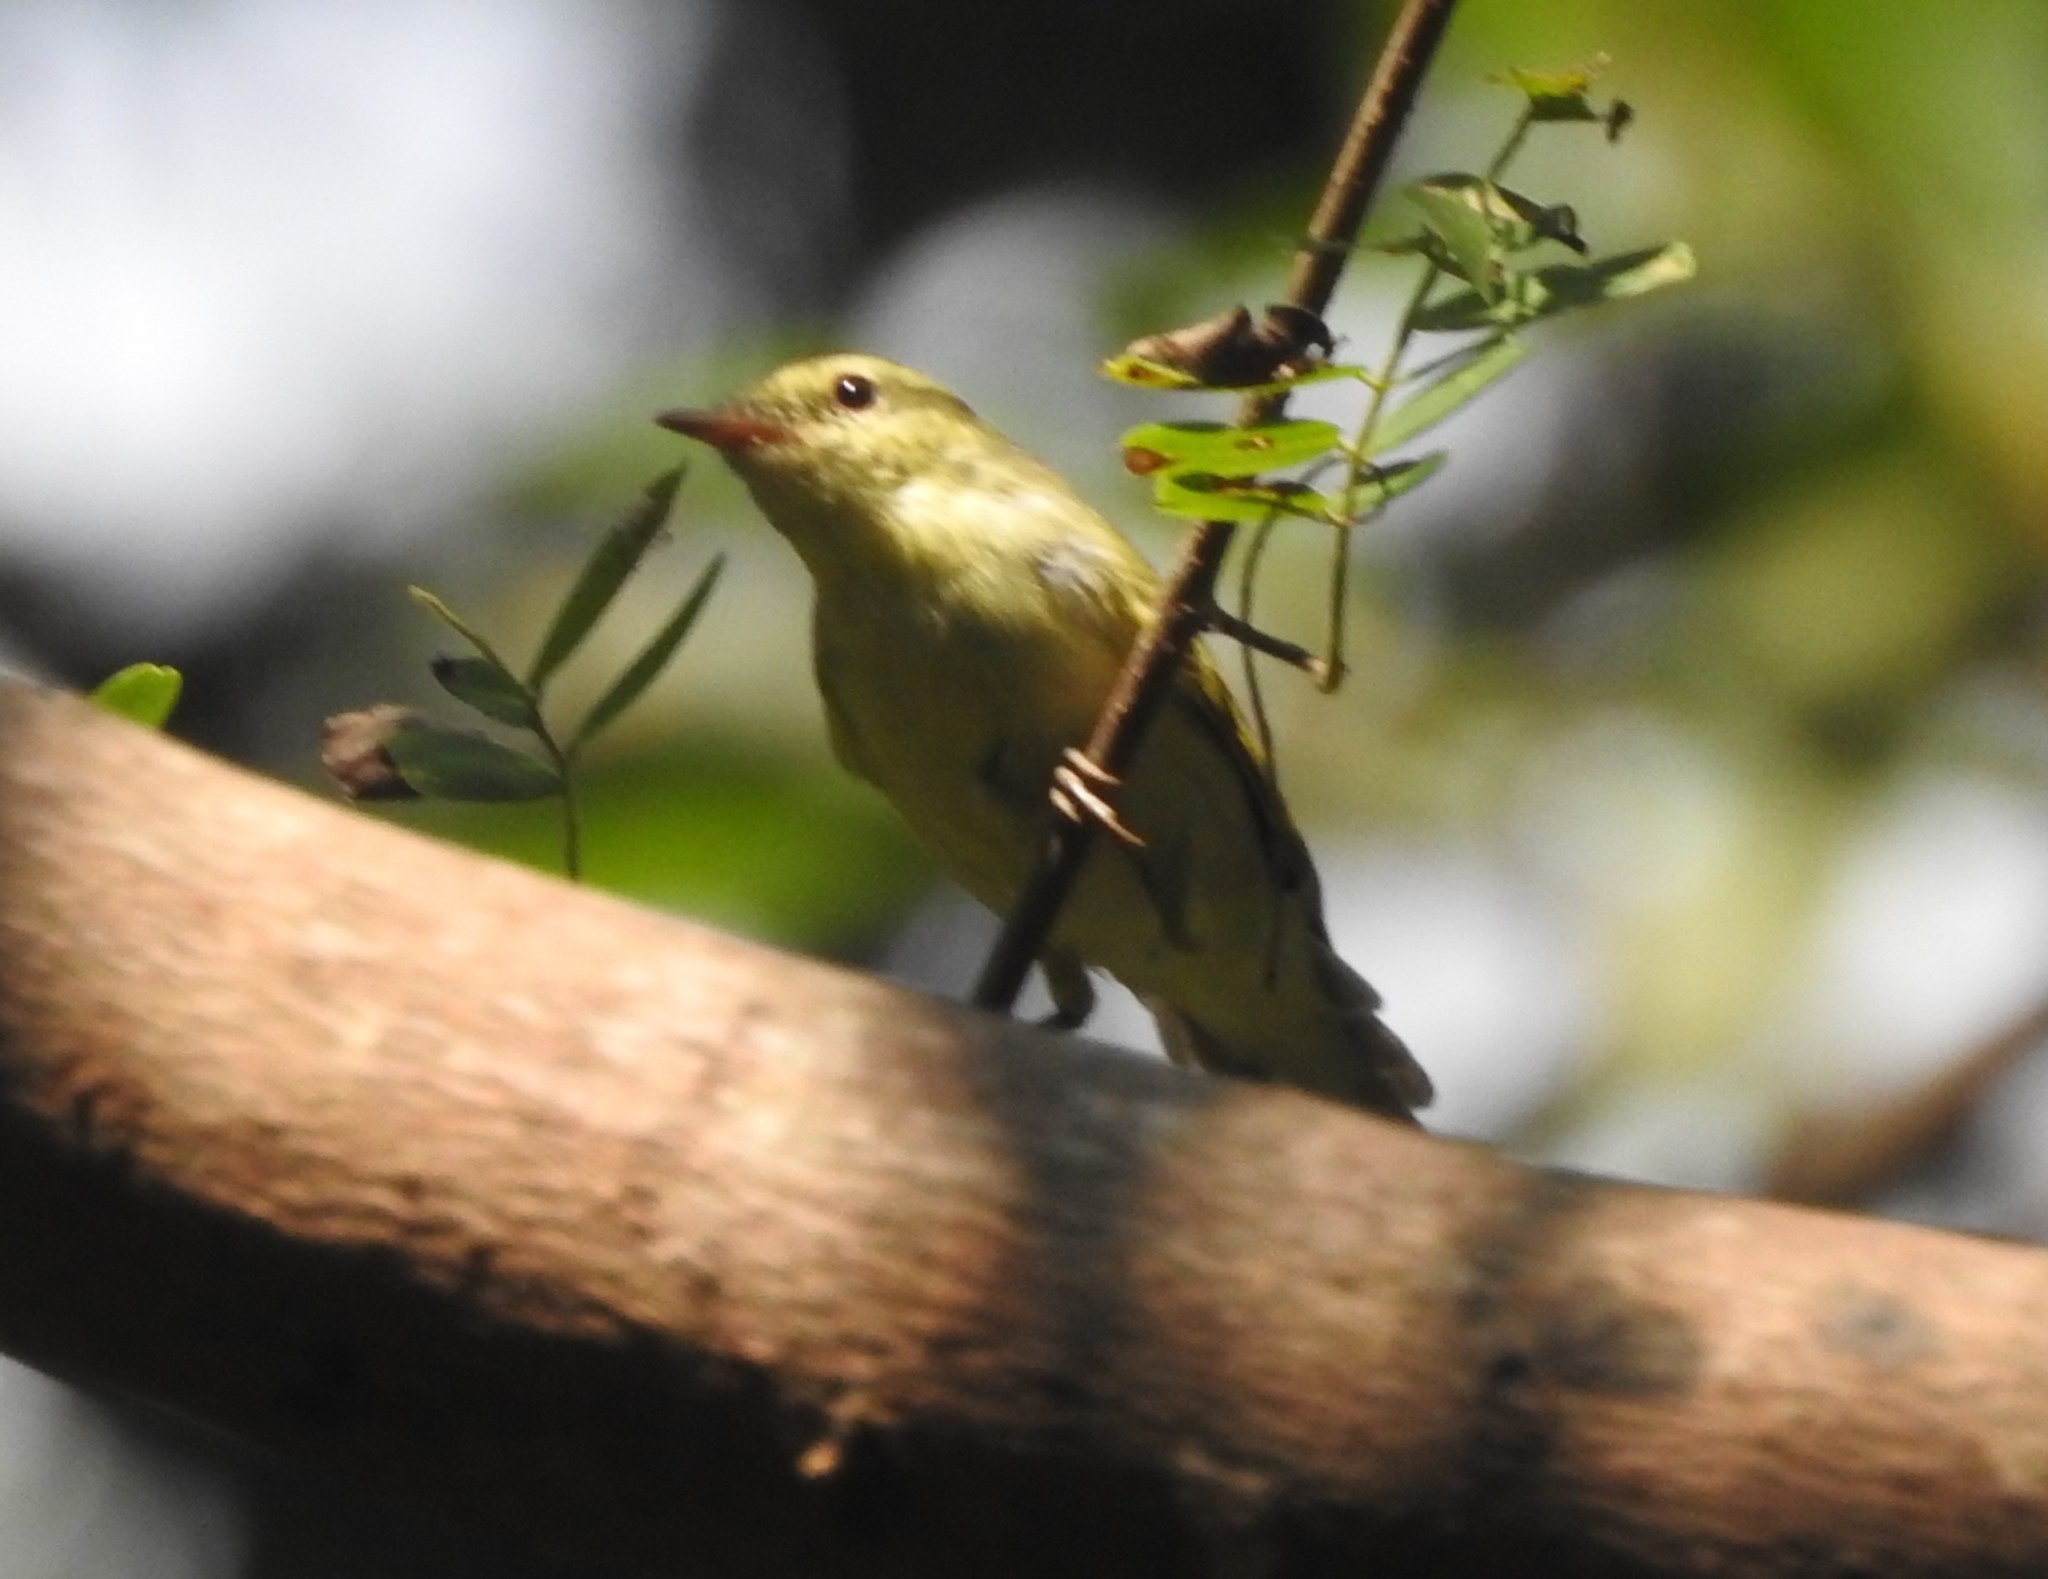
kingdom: Animalia
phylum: Chordata
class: Aves
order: Passeriformes
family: Phylloscopidae
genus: Phylloscopus
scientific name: Phylloscopus nitidus
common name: Green warbler
